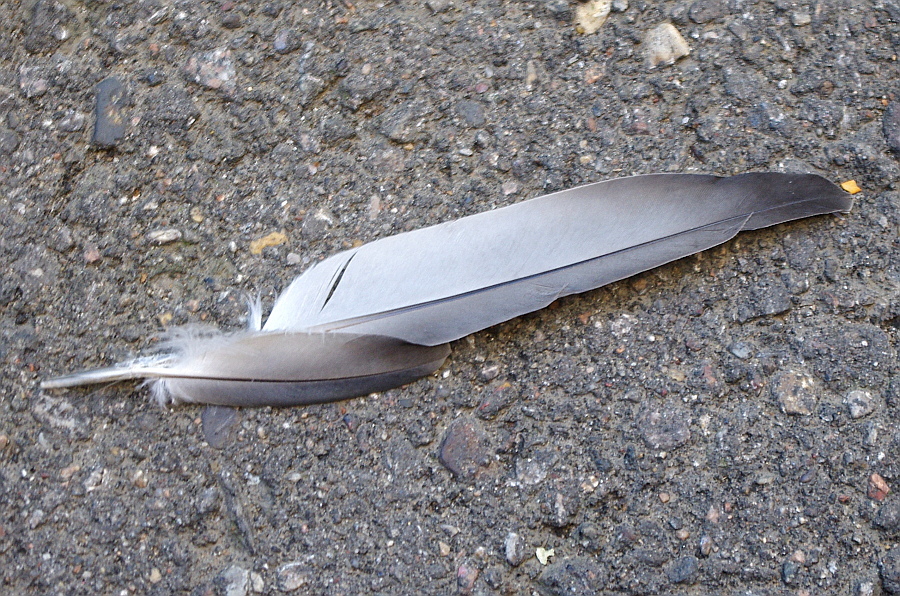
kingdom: Animalia
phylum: Chordata
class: Aves
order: Columbiformes
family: Columbidae
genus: Columba
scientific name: Columba livia
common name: Rock pigeon
